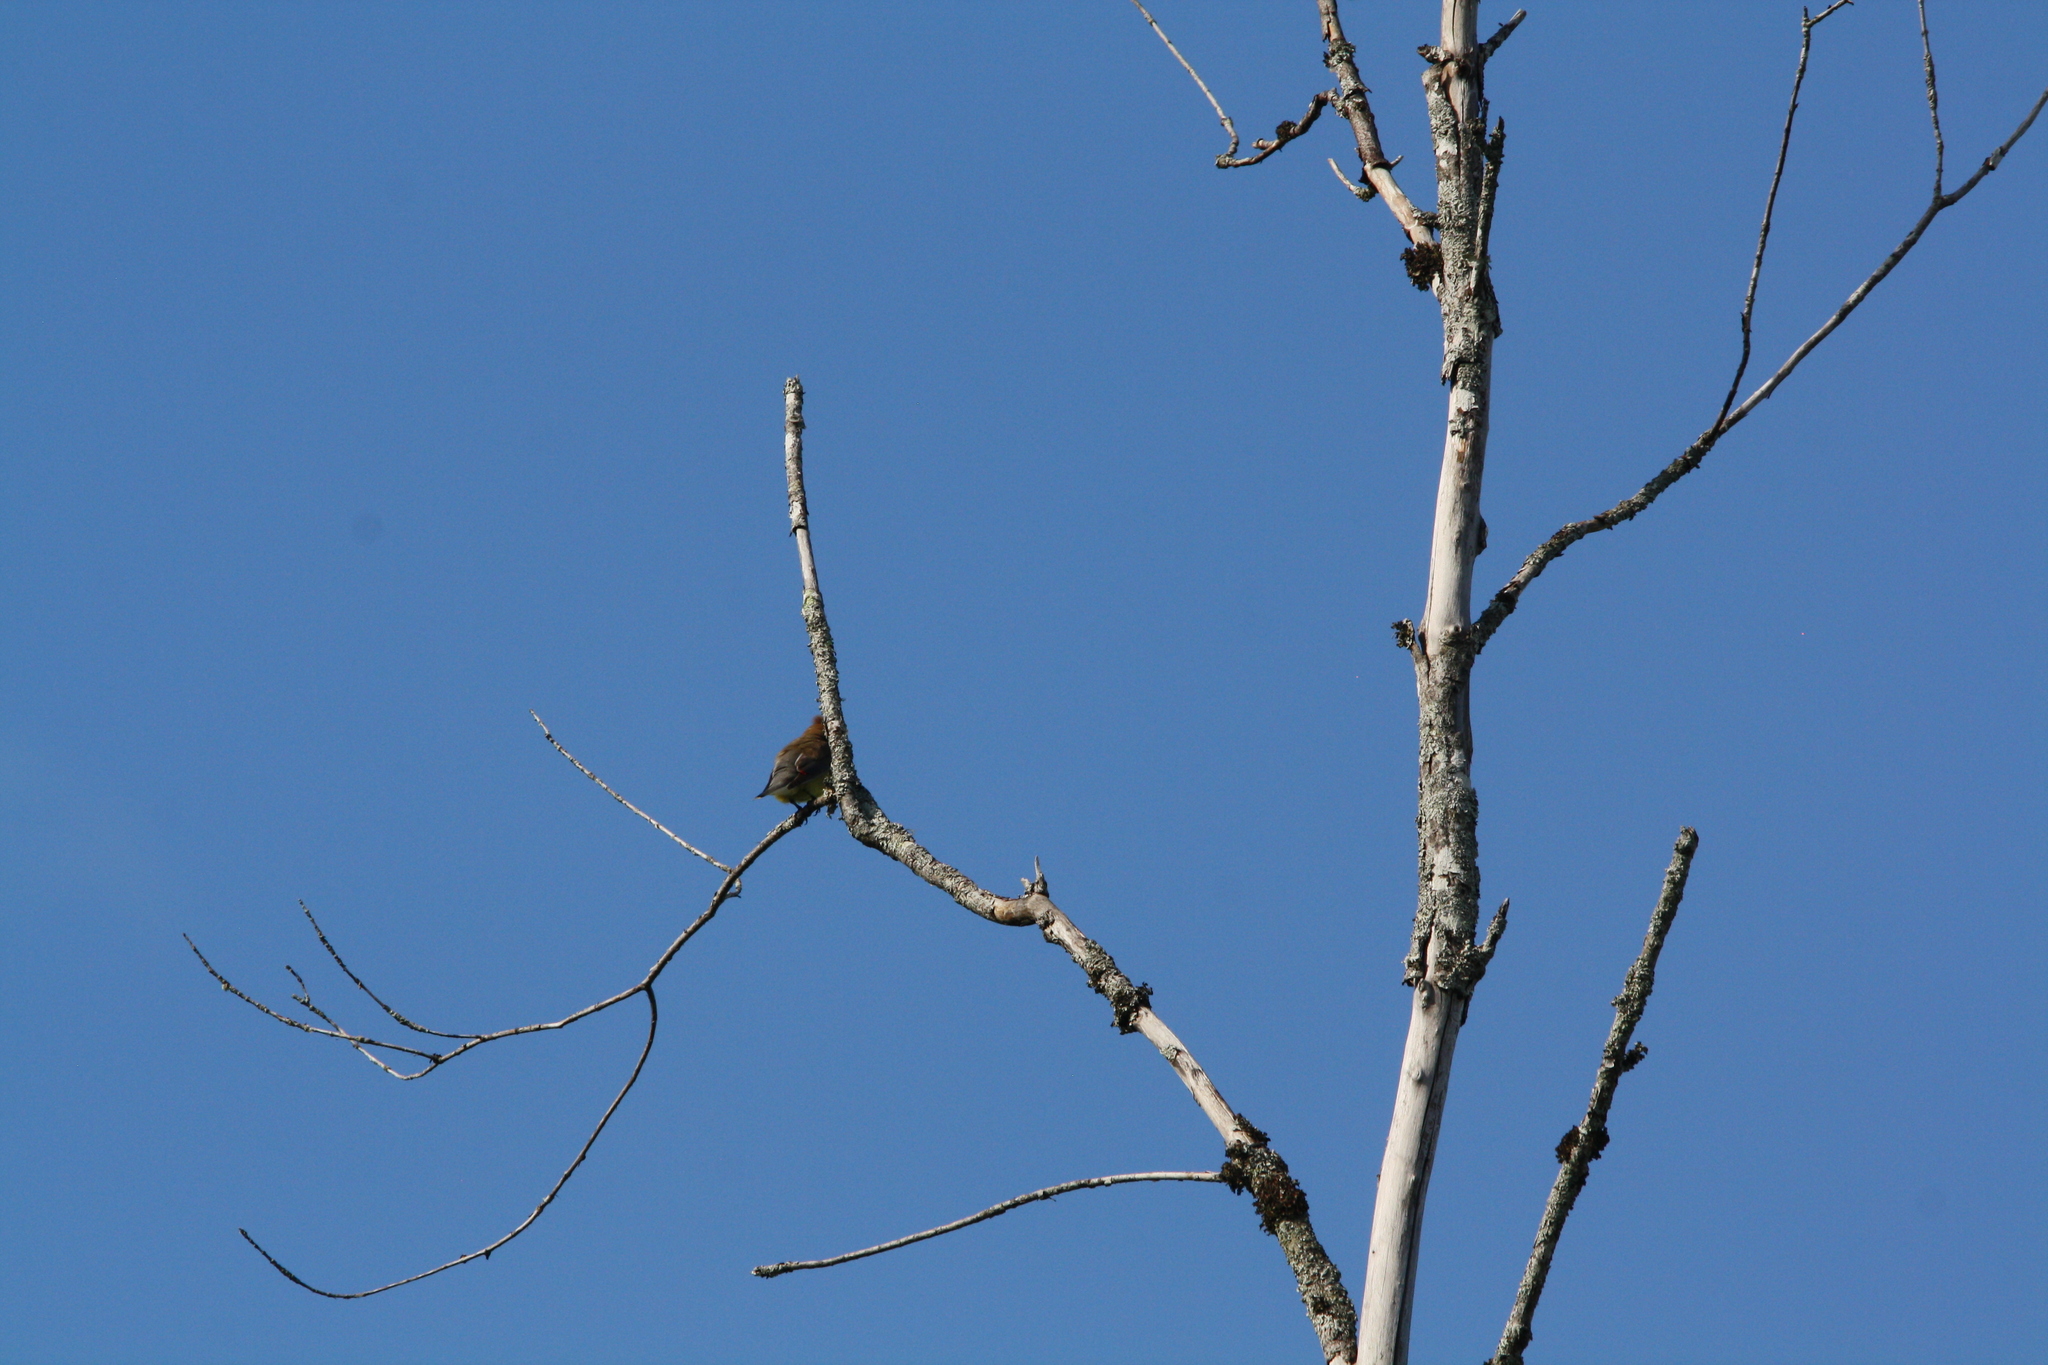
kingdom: Animalia
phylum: Chordata
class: Aves
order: Passeriformes
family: Bombycillidae
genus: Bombycilla
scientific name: Bombycilla cedrorum
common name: Cedar waxwing
